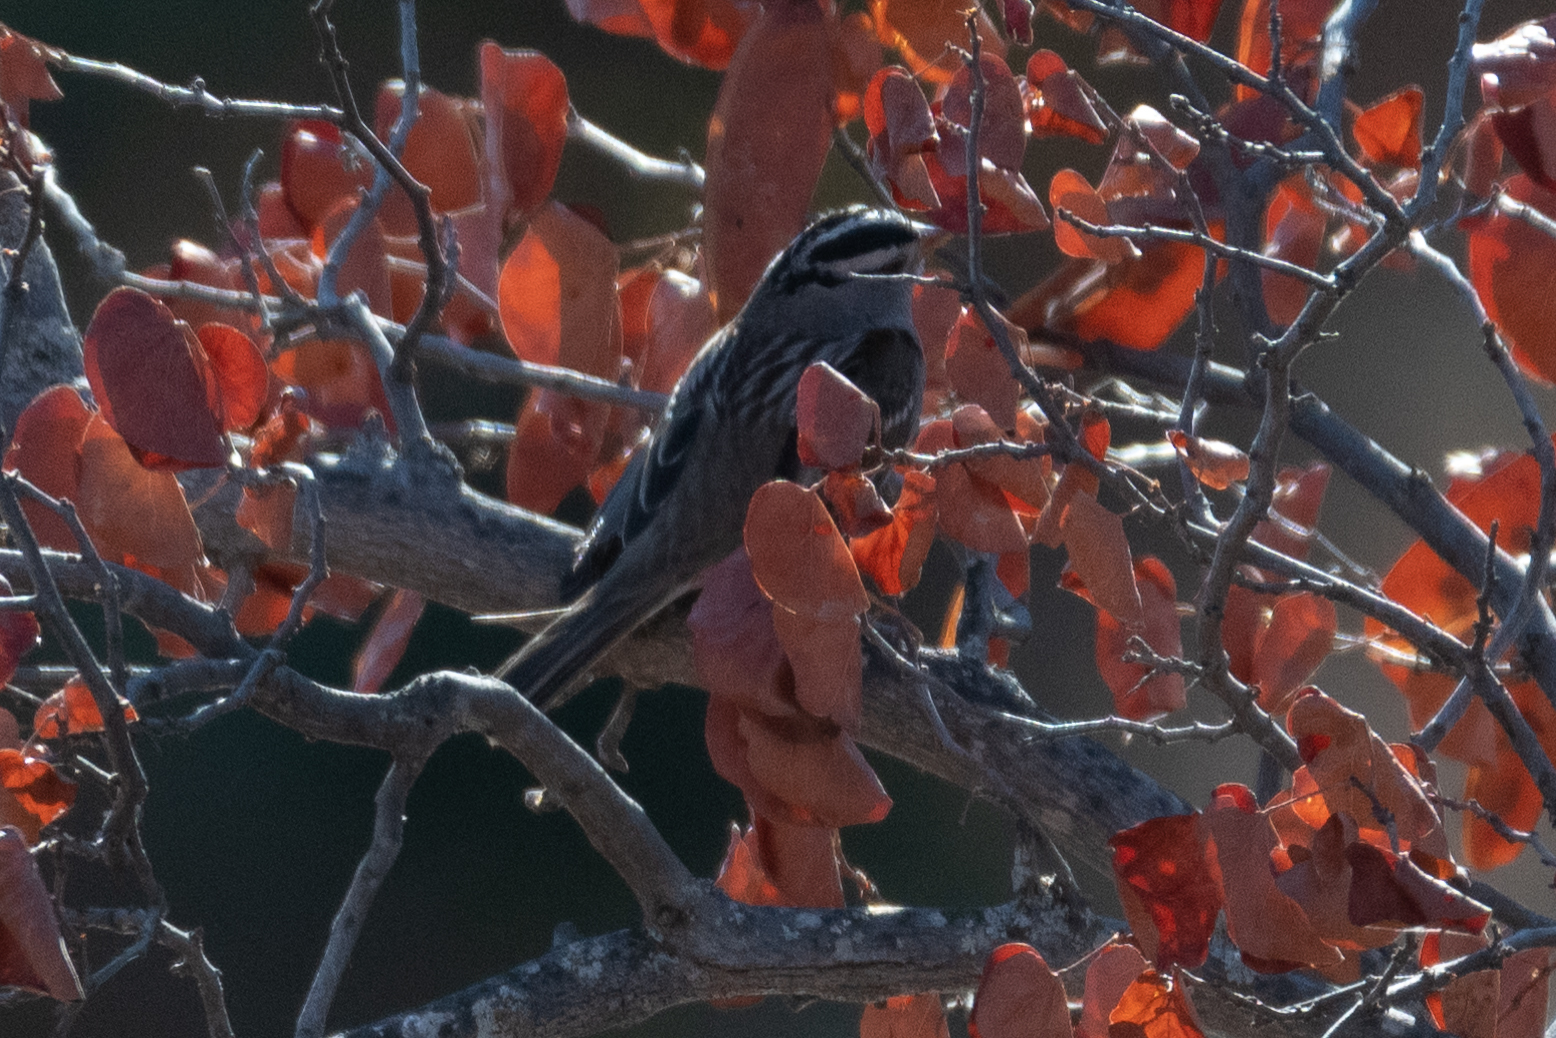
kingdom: Animalia
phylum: Chordata
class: Aves
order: Passeriformes
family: Passerellidae
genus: Zonotrichia
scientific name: Zonotrichia leucophrys
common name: White-crowned sparrow
